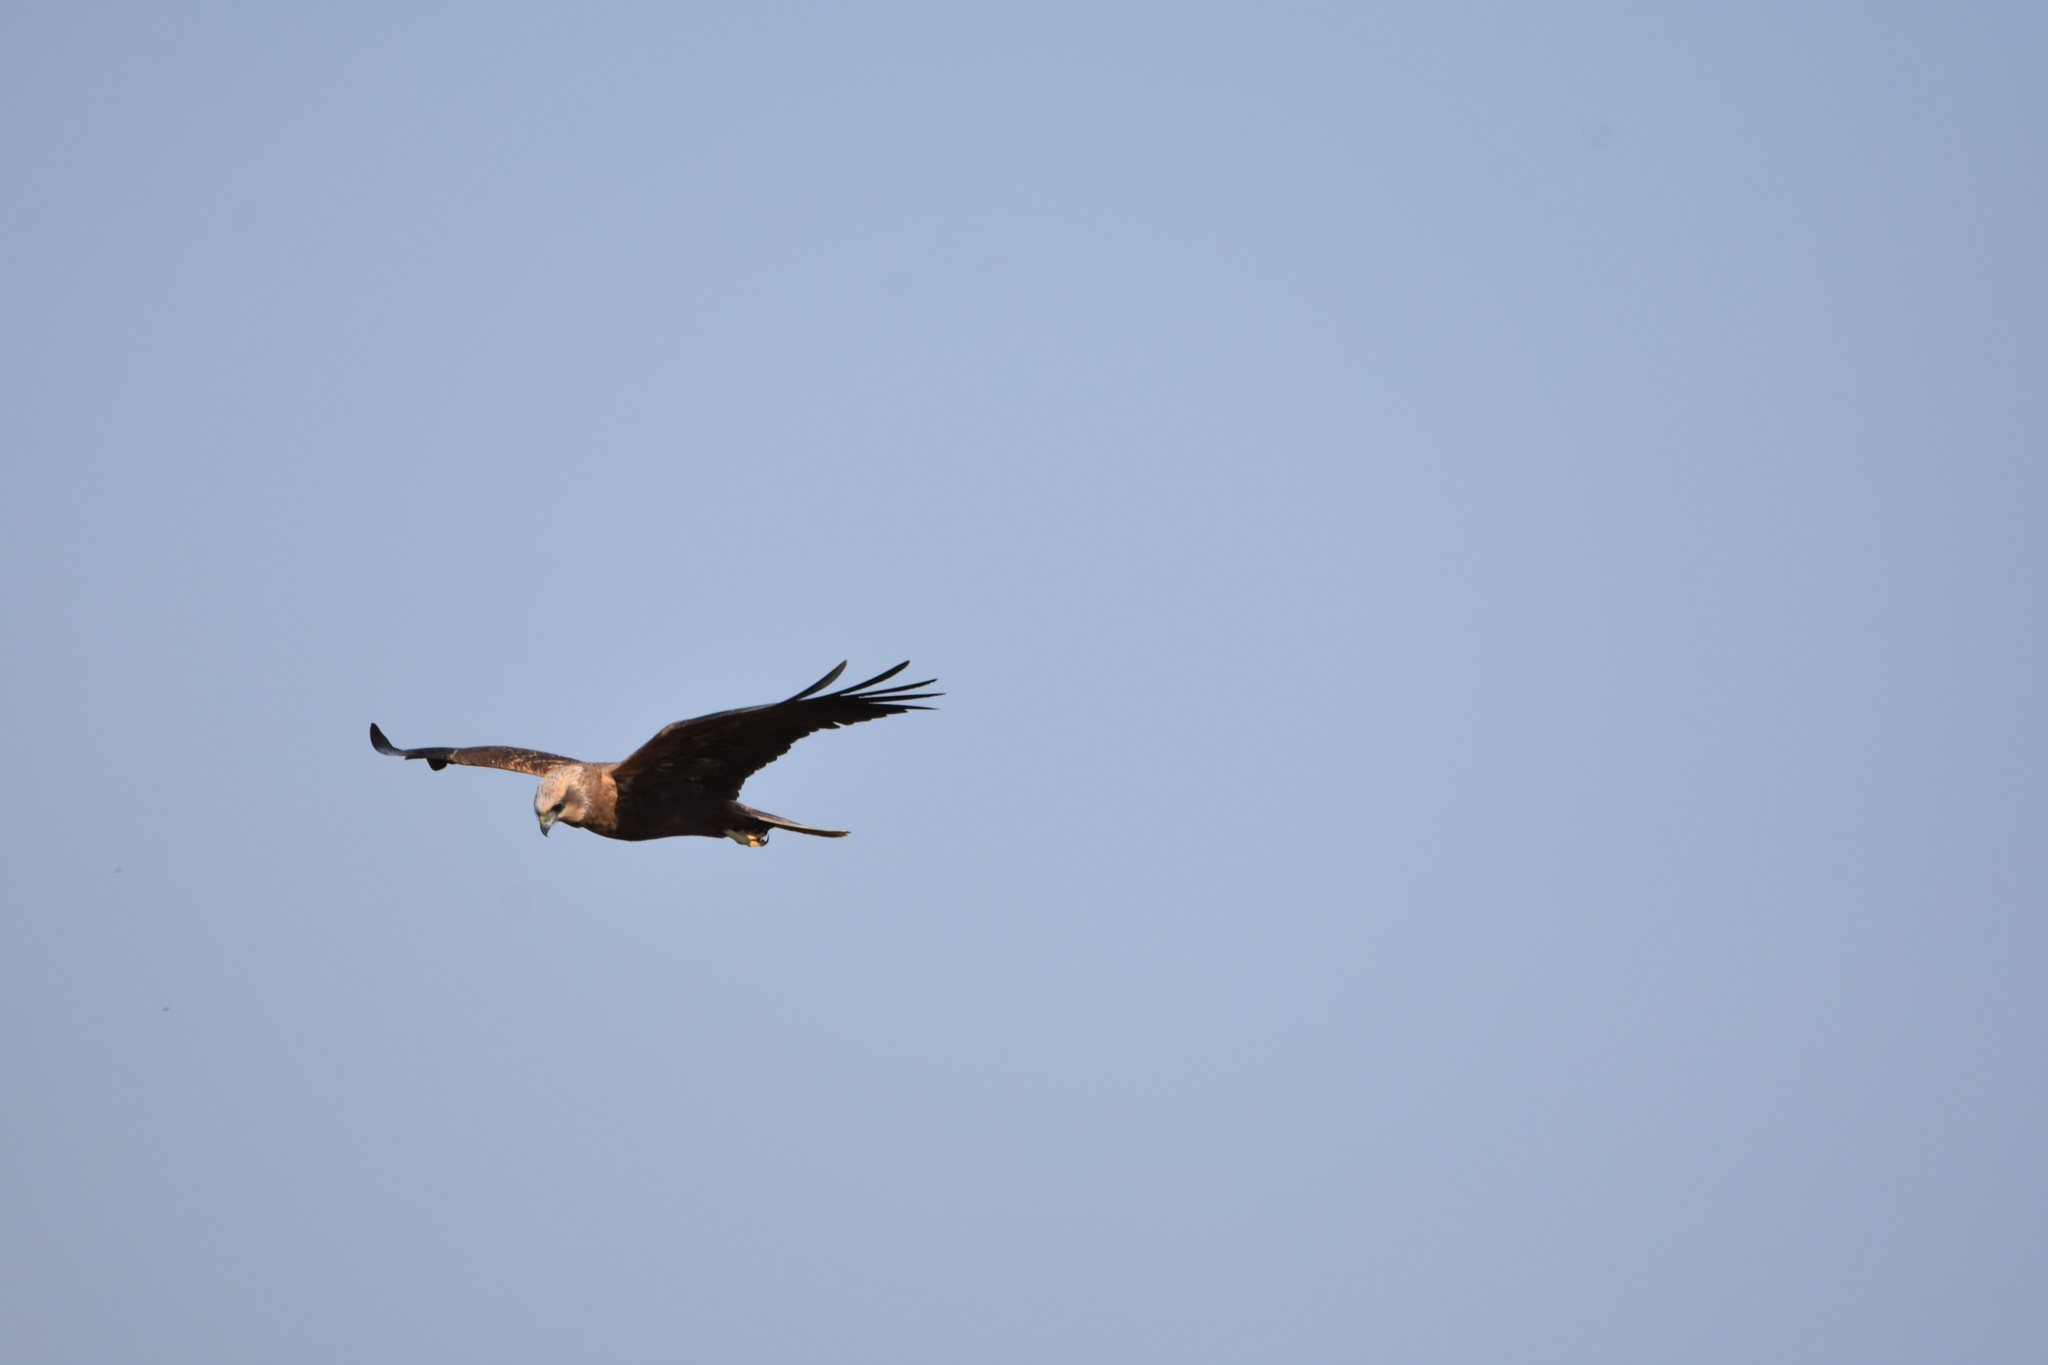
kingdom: Animalia
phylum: Chordata
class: Aves
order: Accipitriformes
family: Accipitridae
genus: Circus
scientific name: Circus aeruginosus
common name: Western marsh harrier
